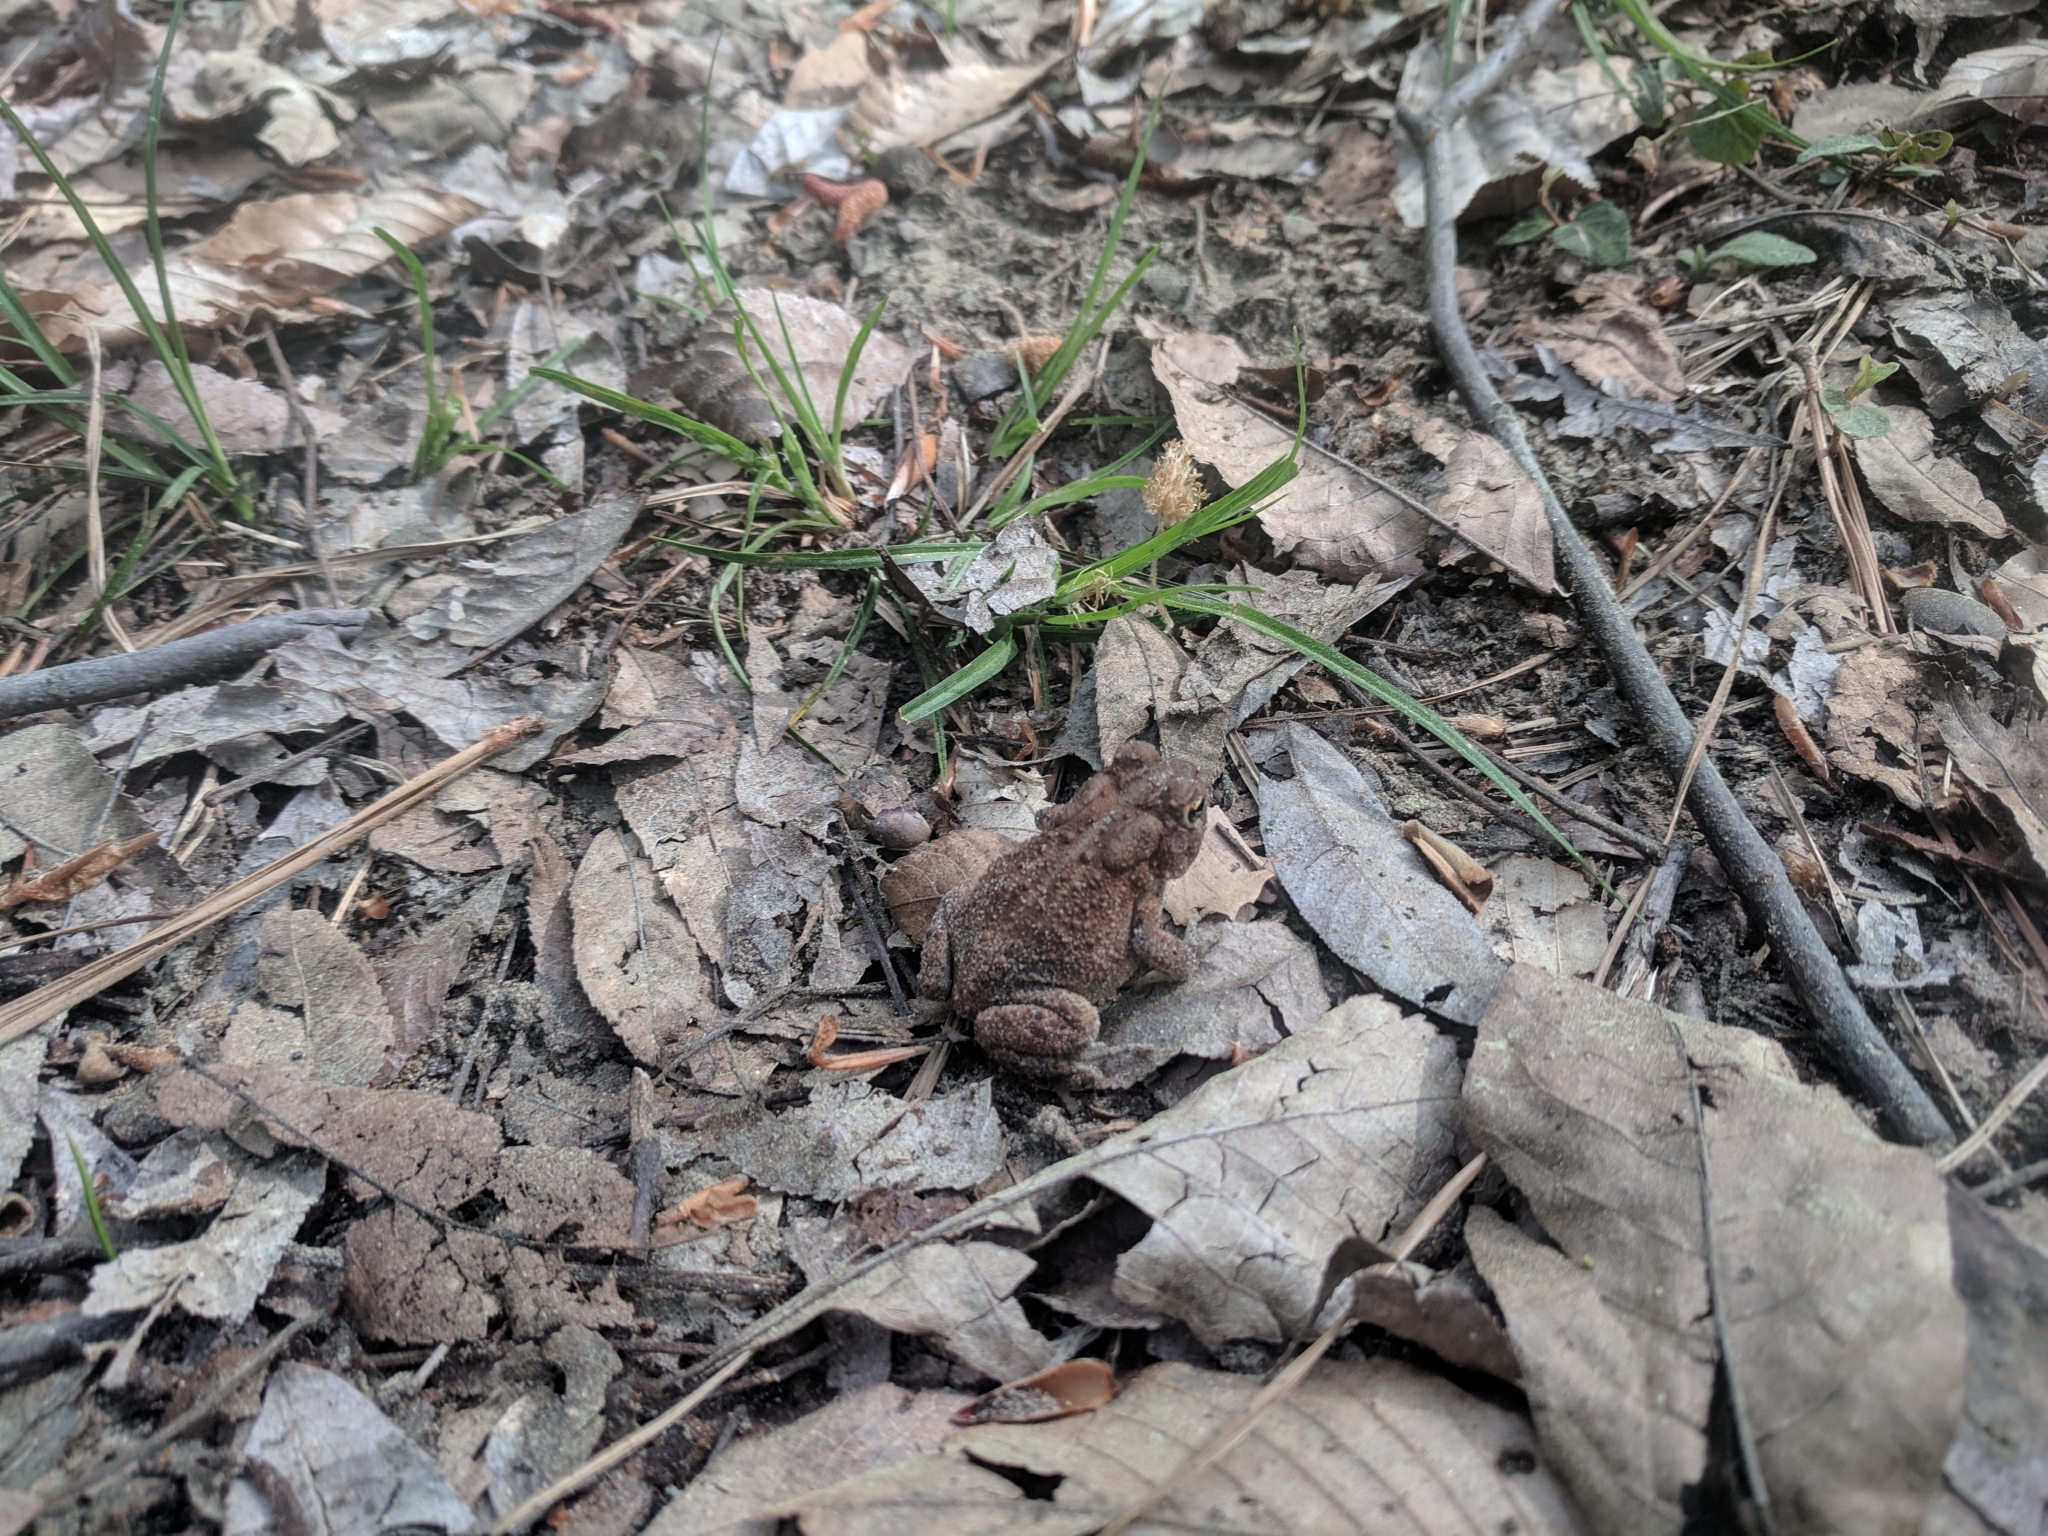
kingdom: Animalia
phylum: Chordata
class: Amphibia
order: Anura
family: Bufonidae
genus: Anaxyrus
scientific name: Anaxyrus terrestris
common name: Southern toad
